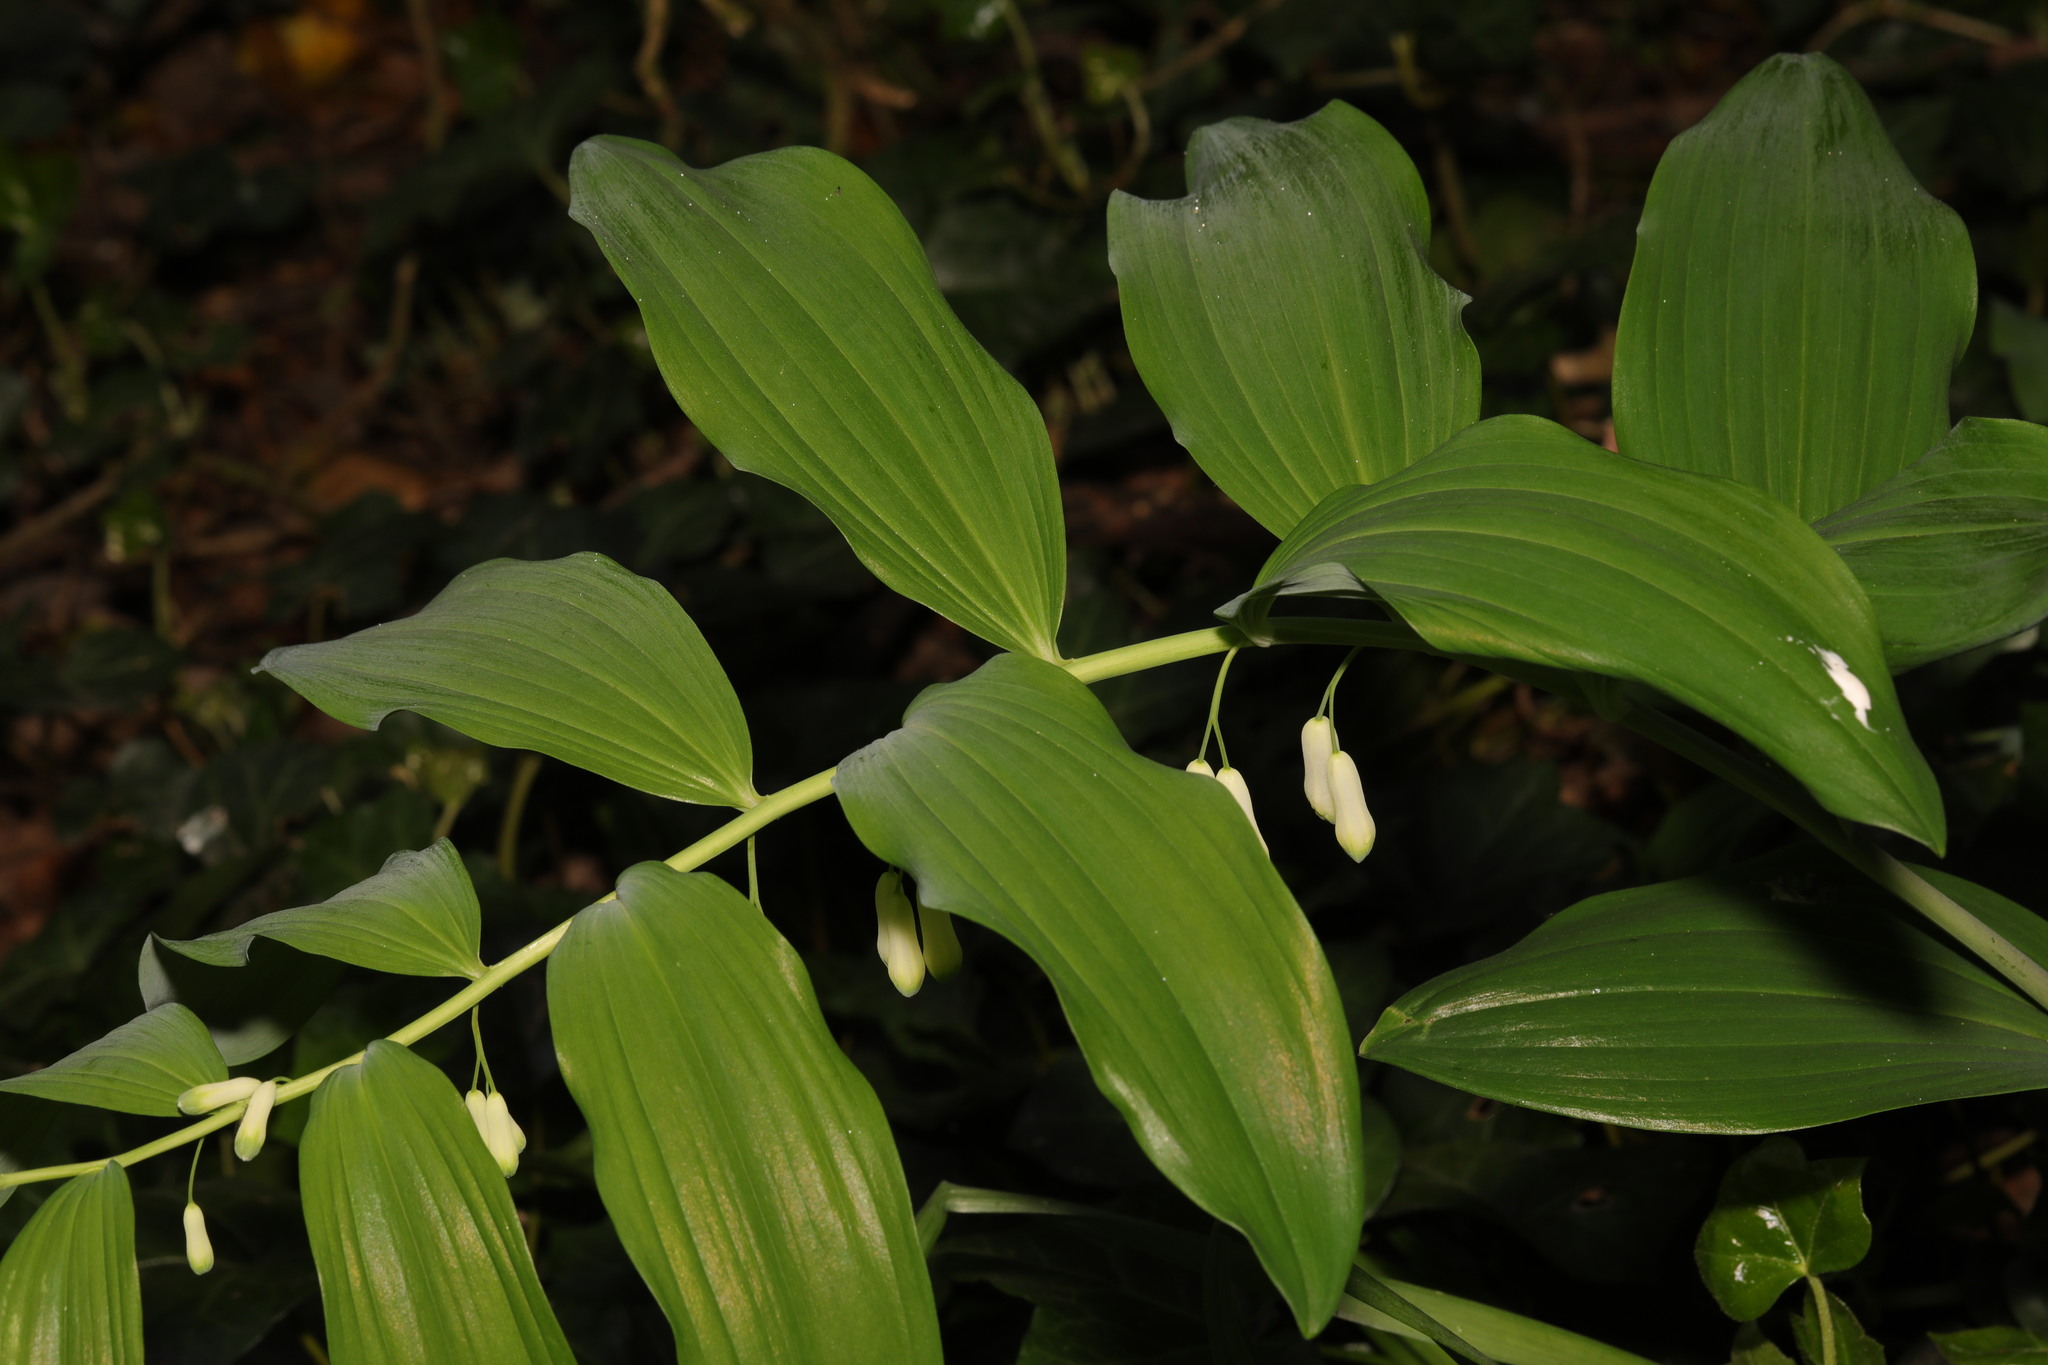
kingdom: Plantae
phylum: Tracheophyta
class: Liliopsida
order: Asparagales
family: Asparagaceae
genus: Polygonatum
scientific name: Polygonatum hybridum
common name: Garden solomon's-seal
